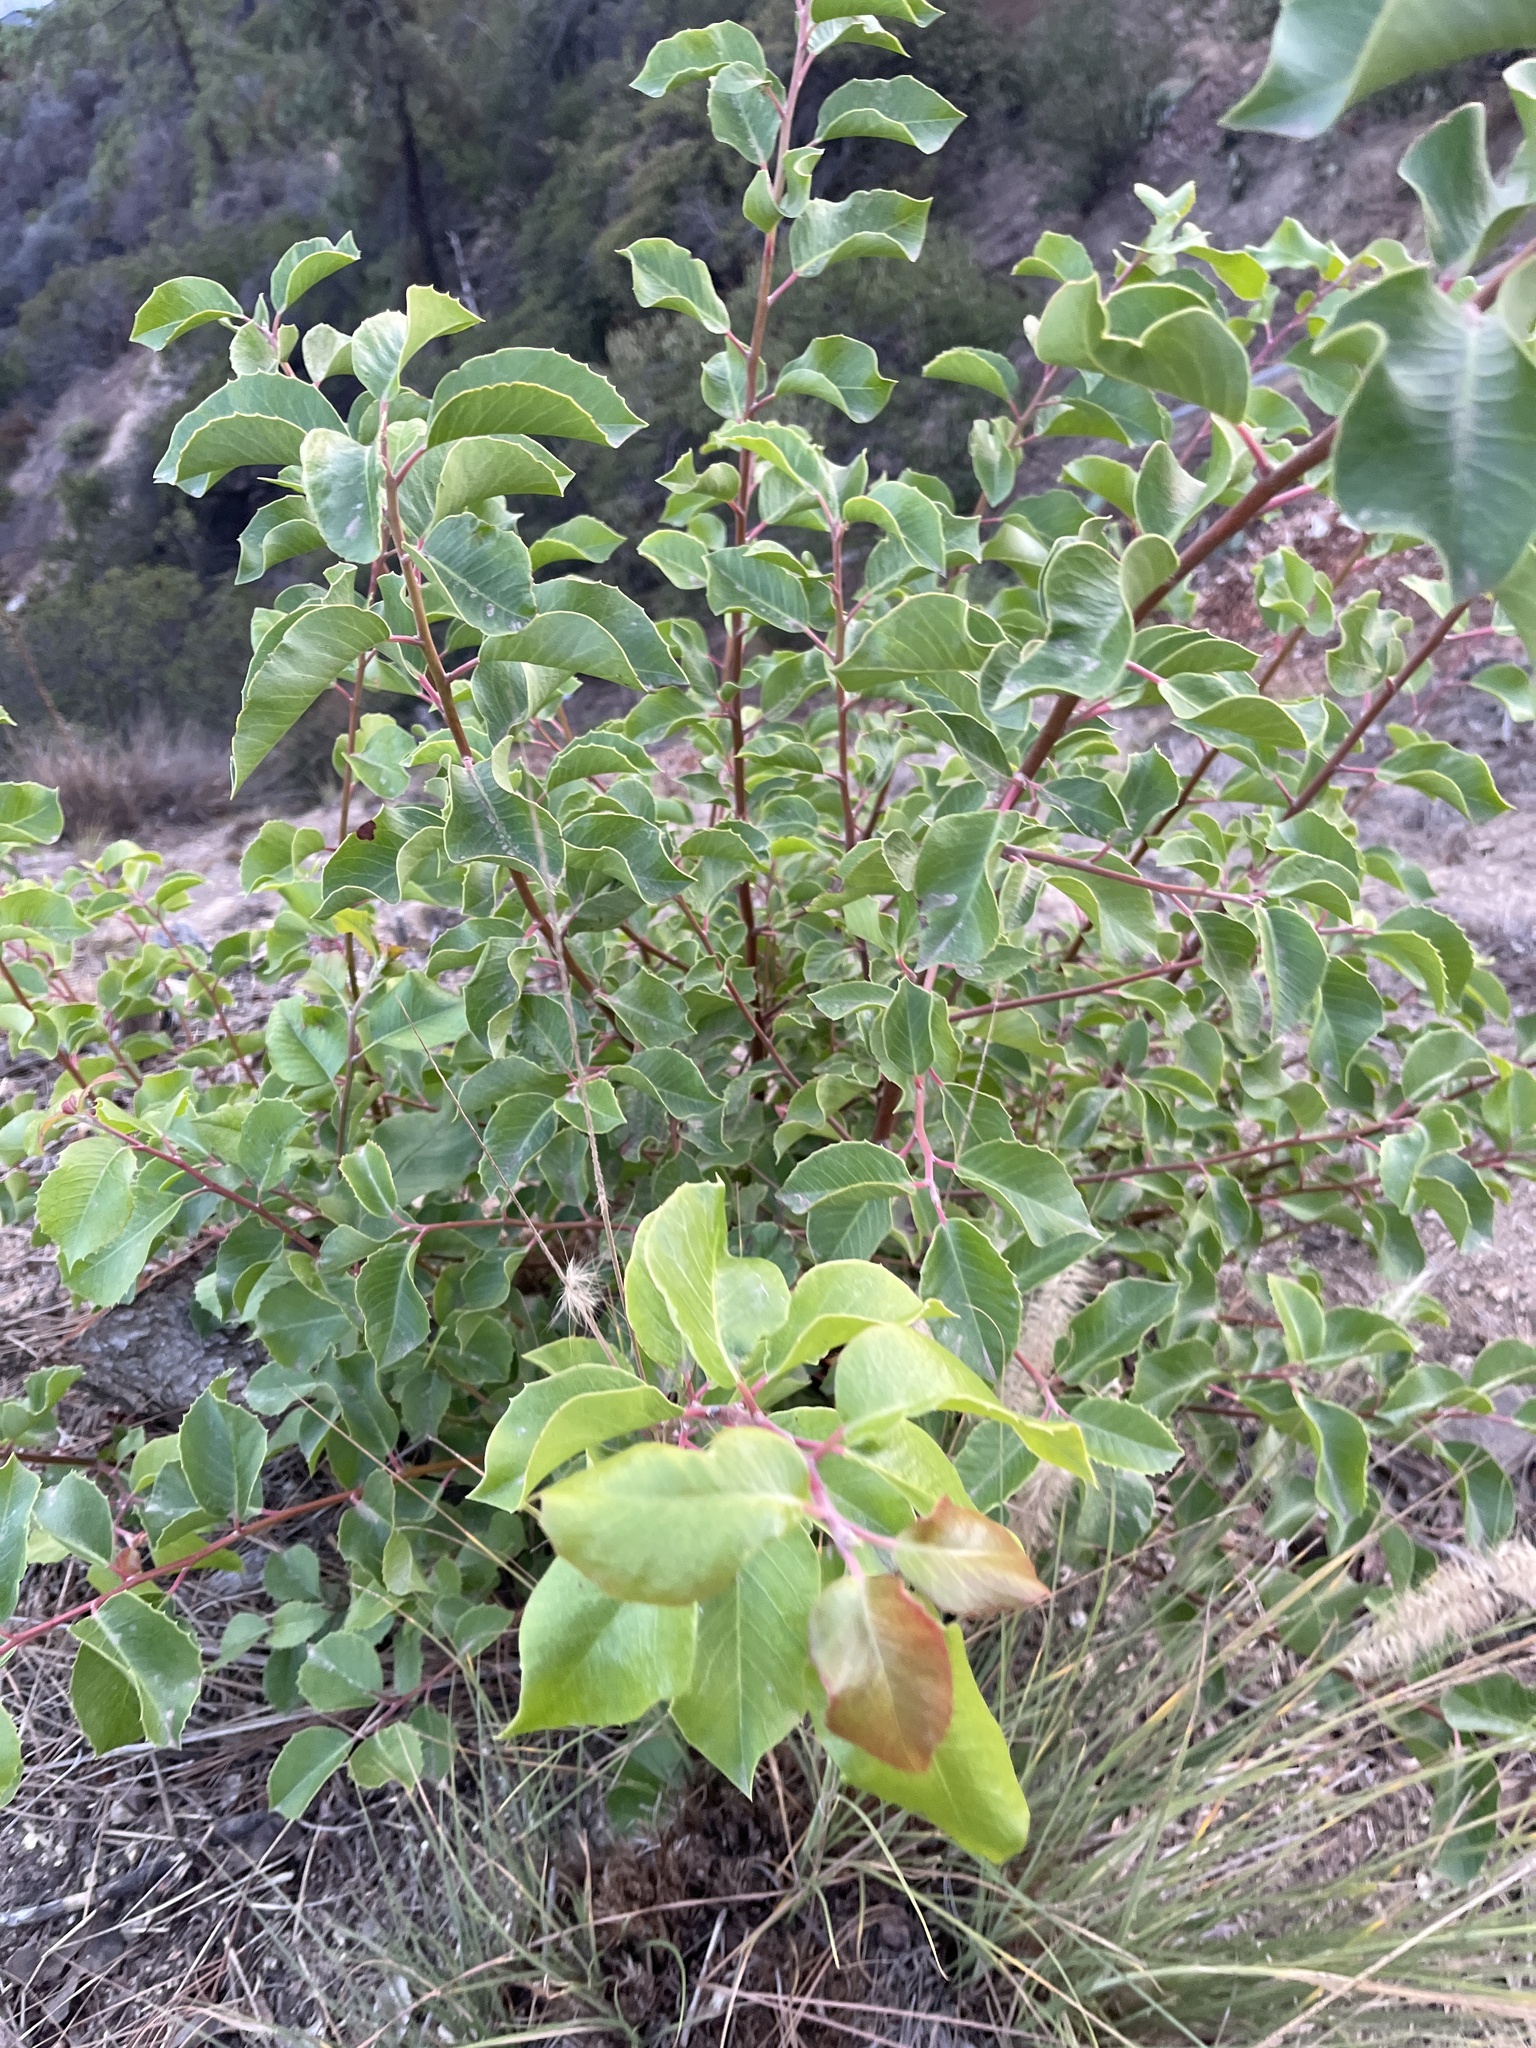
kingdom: Plantae
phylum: Tracheophyta
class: Magnoliopsida
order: Sapindales
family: Anacardiaceae
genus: Rhus
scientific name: Rhus
